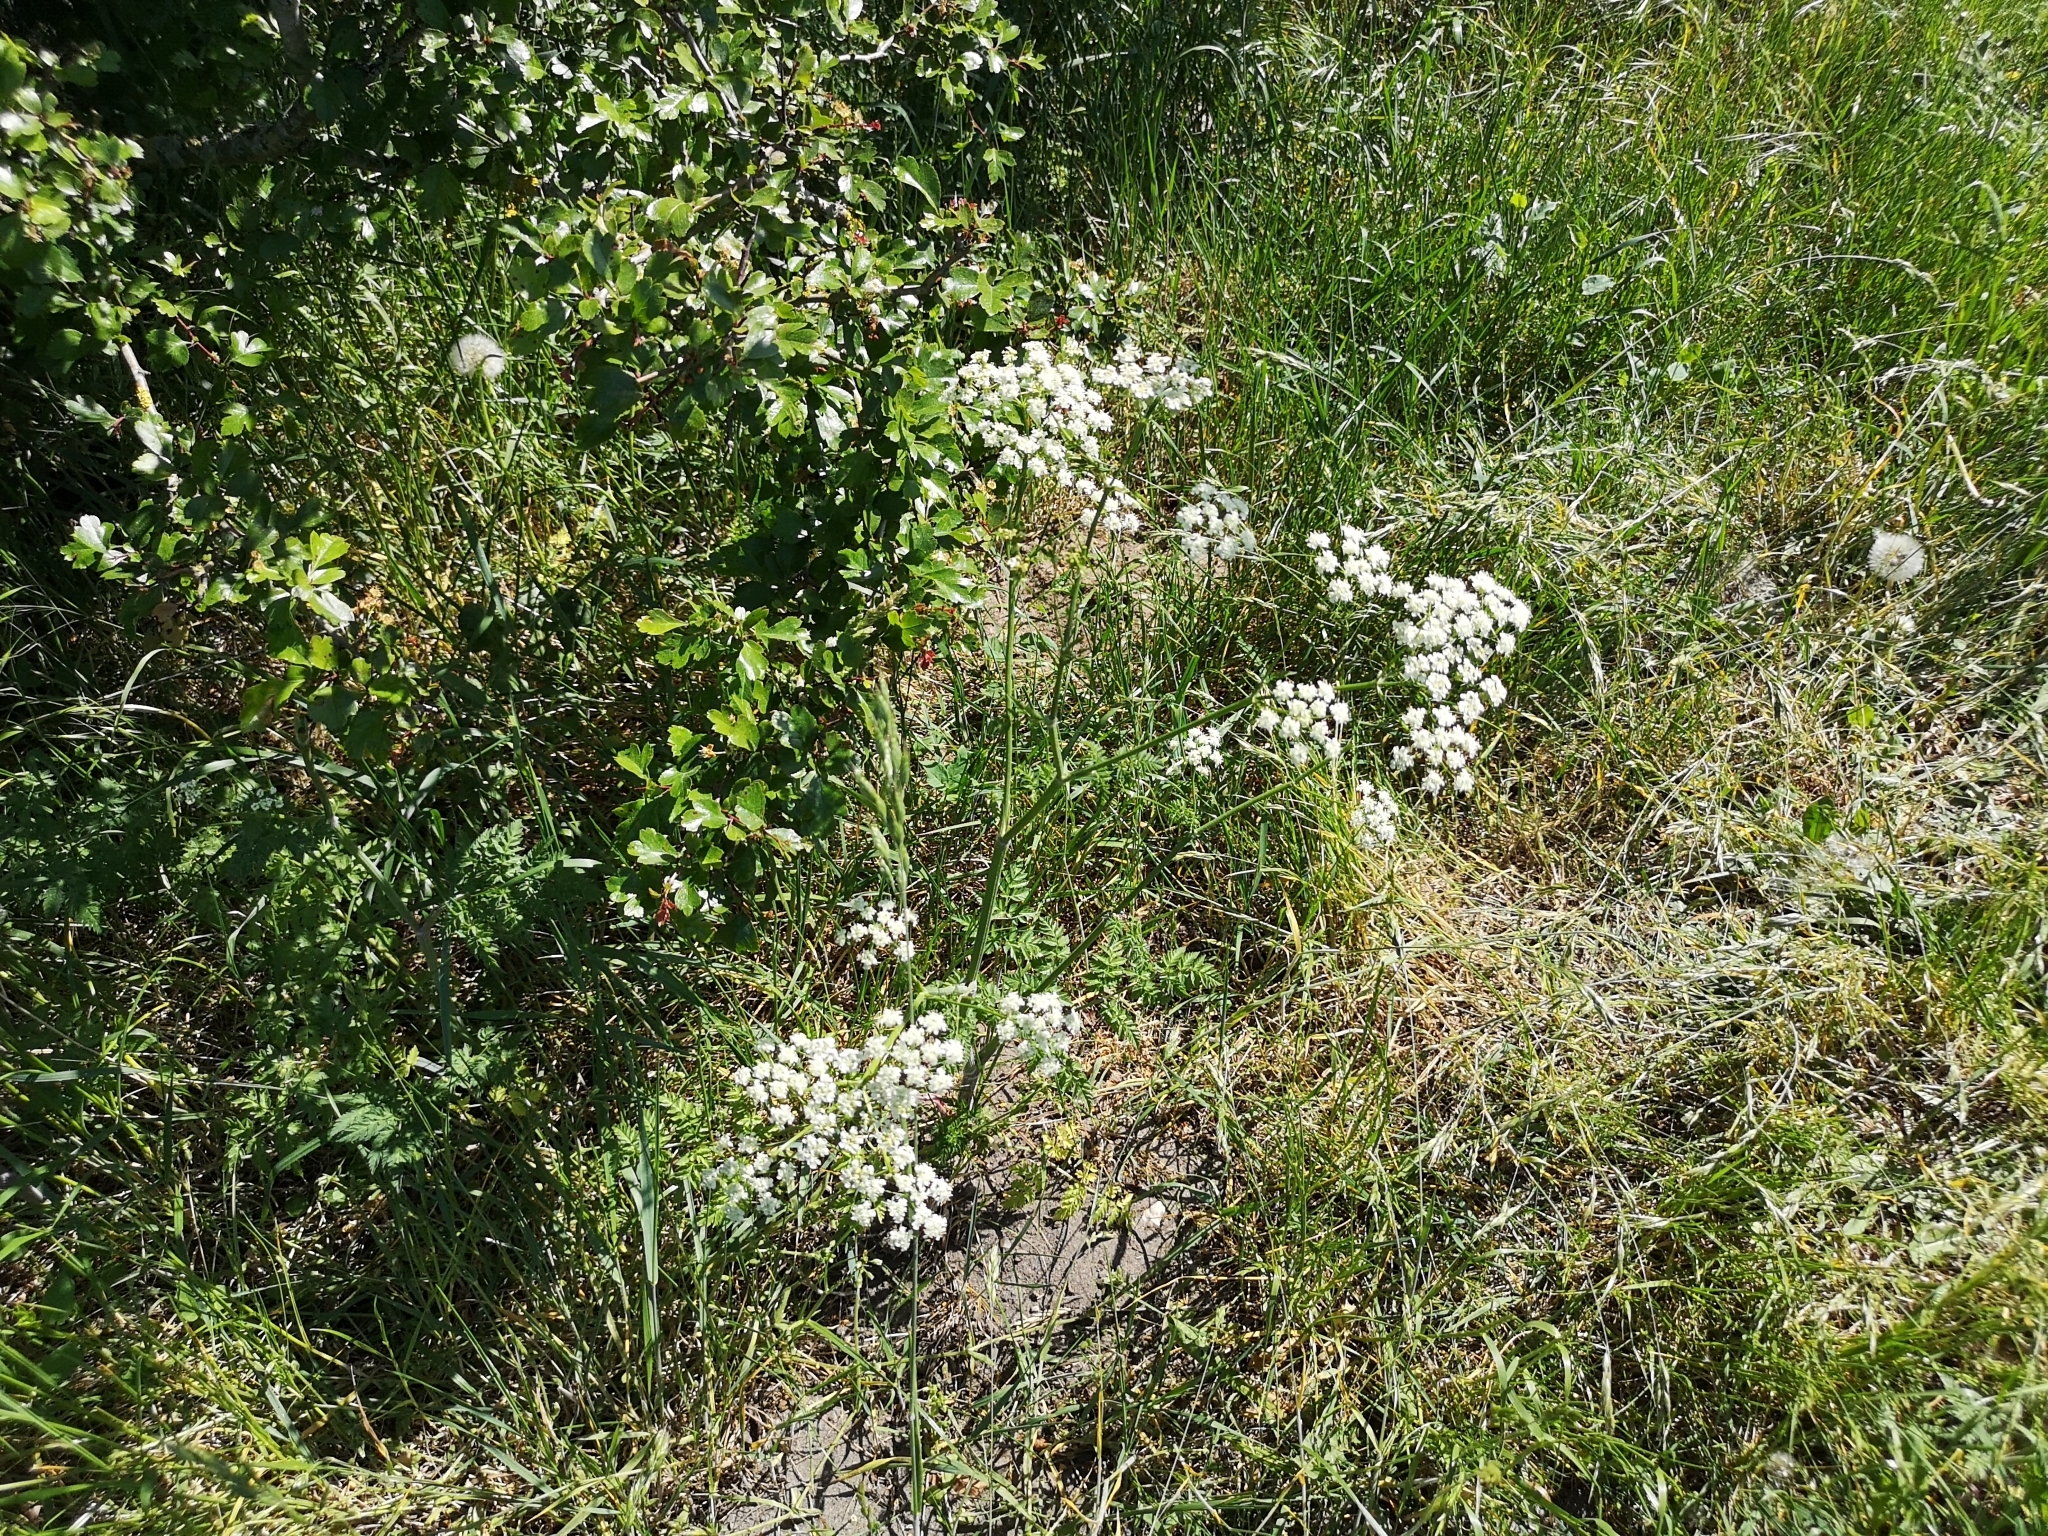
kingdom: Plantae
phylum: Tracheophyta
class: Magnoliopsida
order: Apiales
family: Apiaceae
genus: Anthriscus
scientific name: Anthriscus sylvestris
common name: Cow parsley
